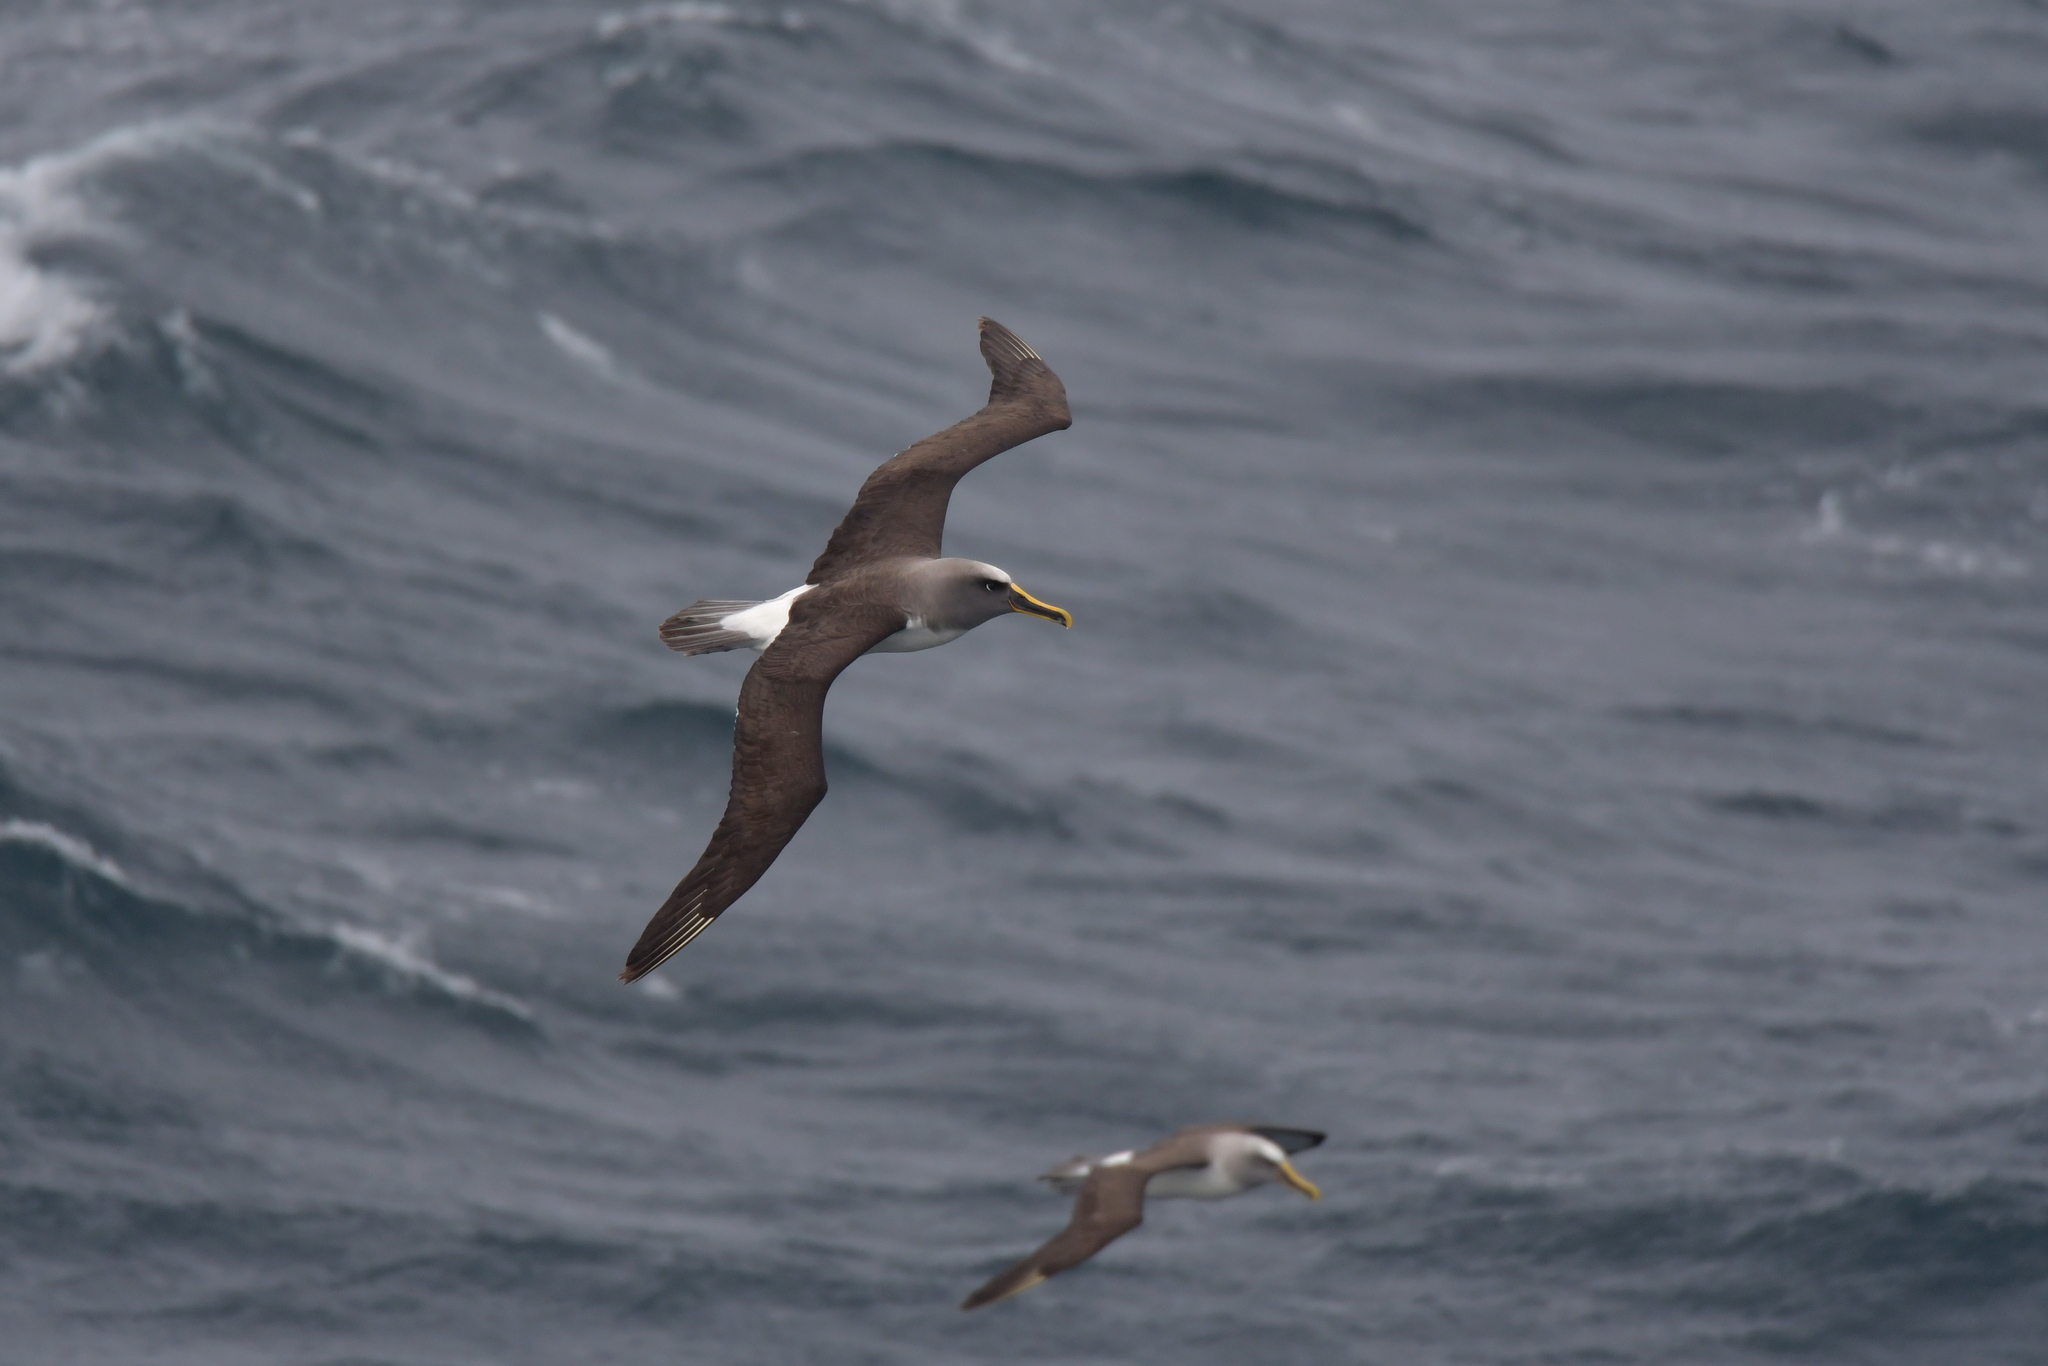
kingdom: Animalia
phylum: Chordata
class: Aves
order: Procellariiformes
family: Diomedeidae
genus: Thalassarche
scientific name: Thalassarche bulleri
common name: Buller's albatross
